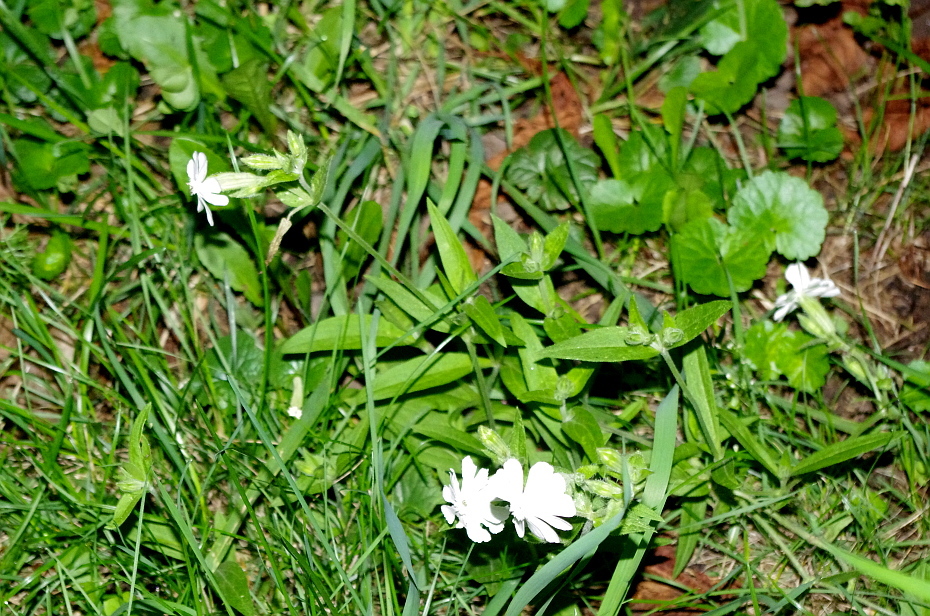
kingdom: Plantae
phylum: Tracheophyta
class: Magnoliopsida
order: Caryophyllales
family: Caryophyllaceae
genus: Silene
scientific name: Silene latifolia
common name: White campion
